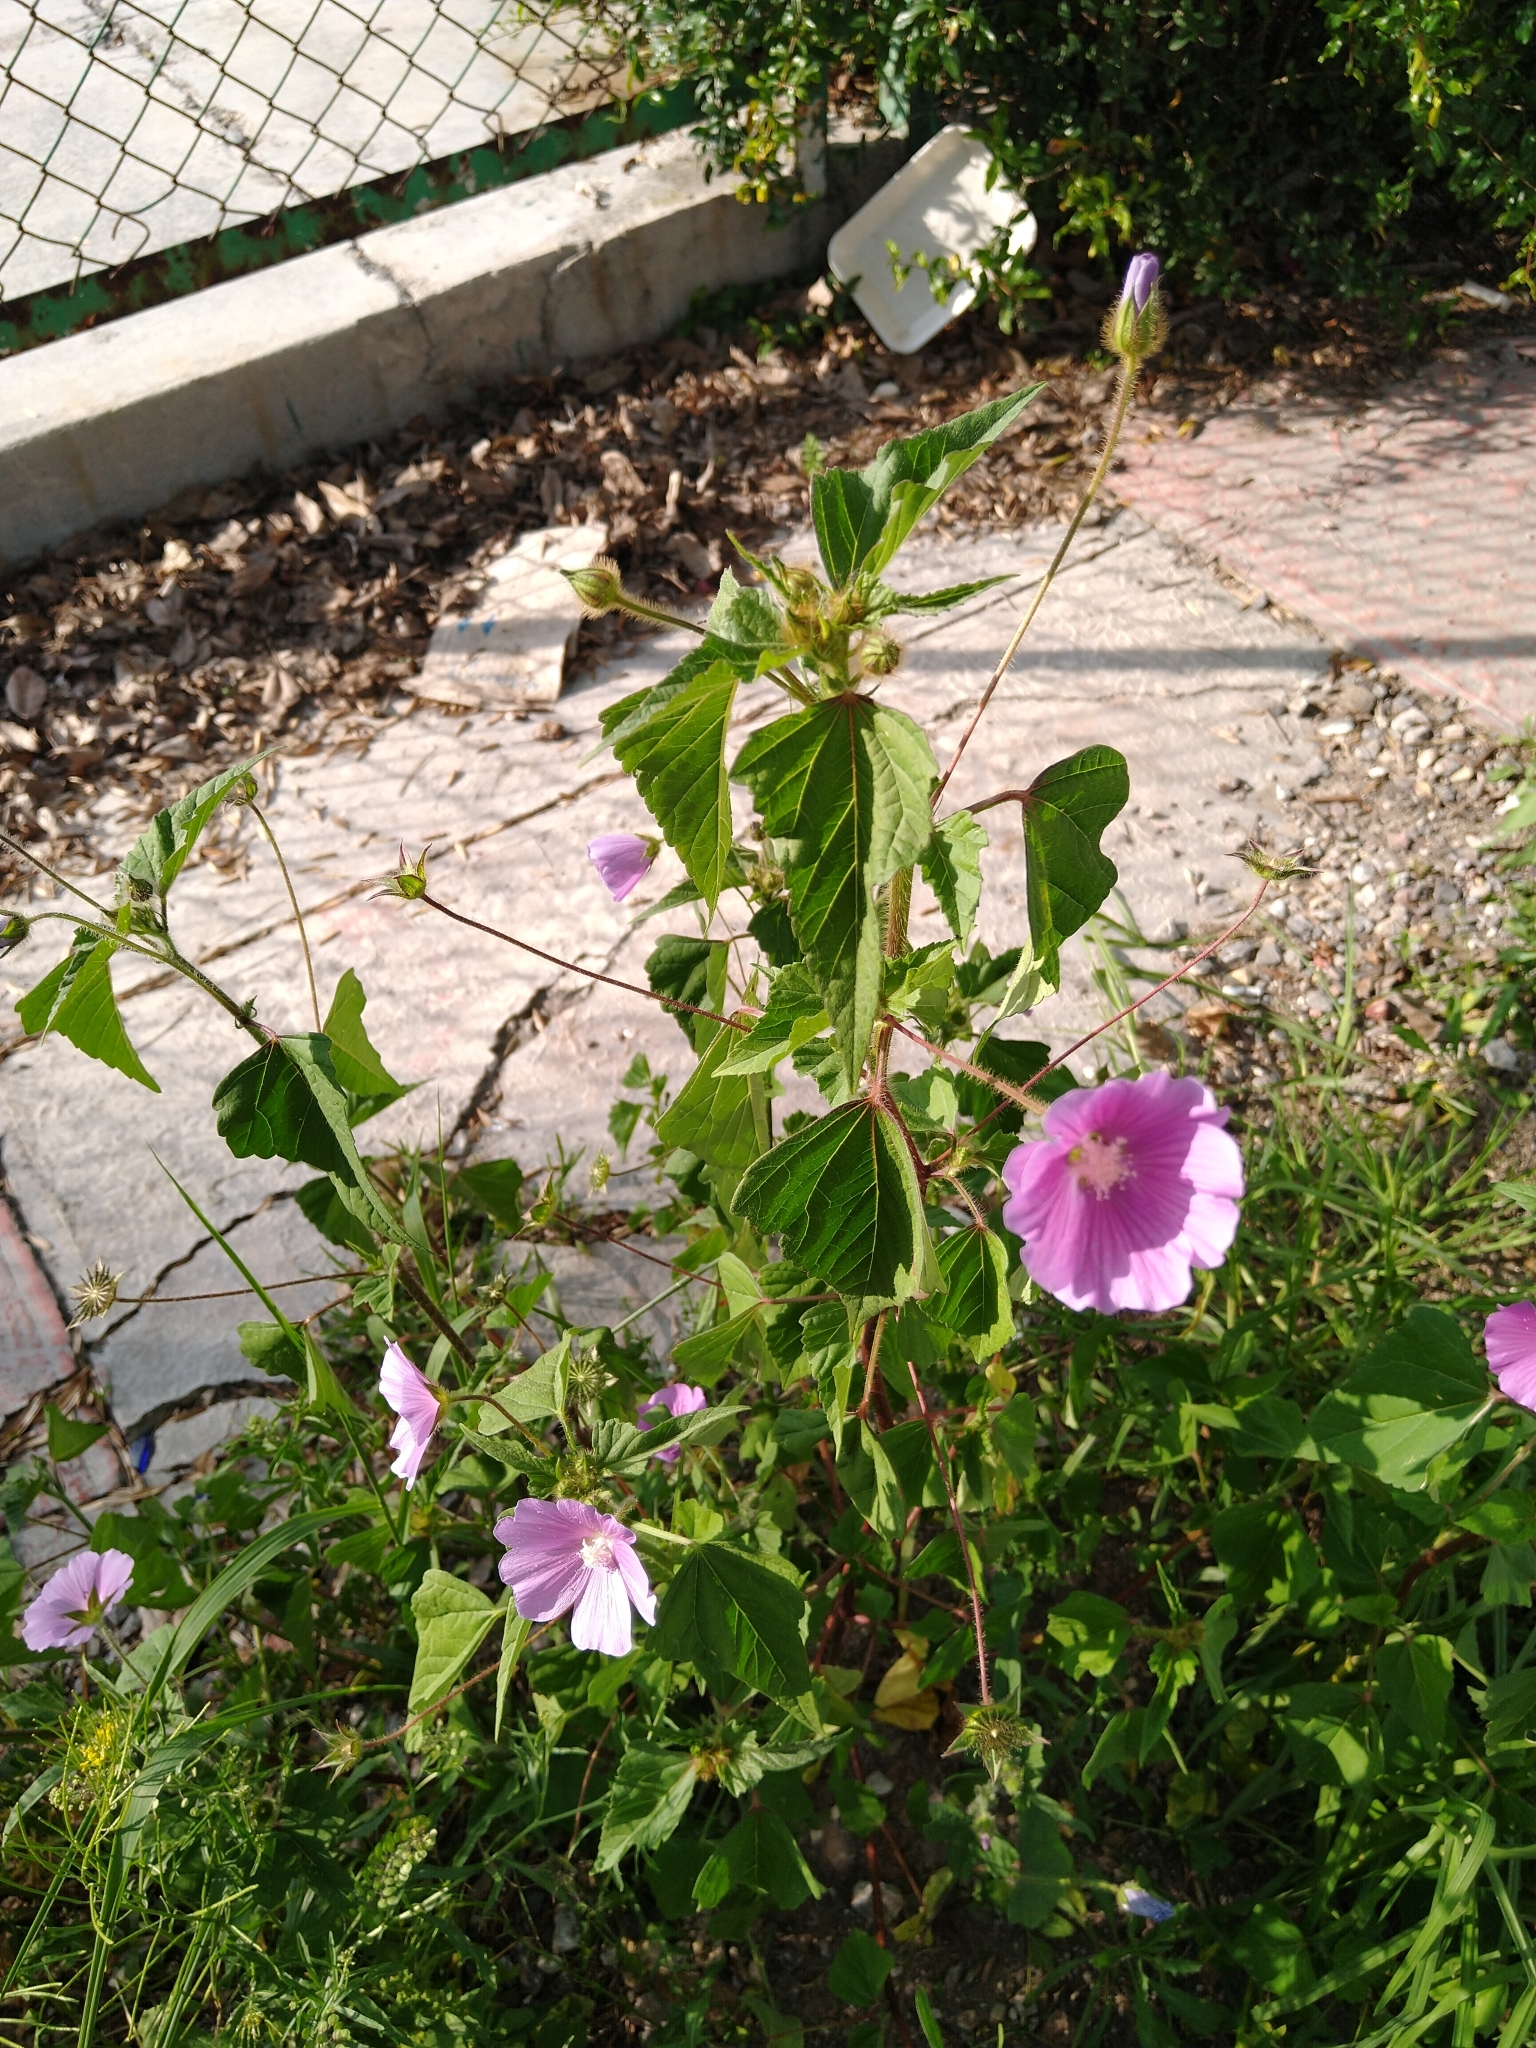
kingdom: Plantae
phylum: Tracheophyta
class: Magnoliopsida
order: Malvales
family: Malvaceae
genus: Anoda
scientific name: Anoda cristata
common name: Spurred anoda
